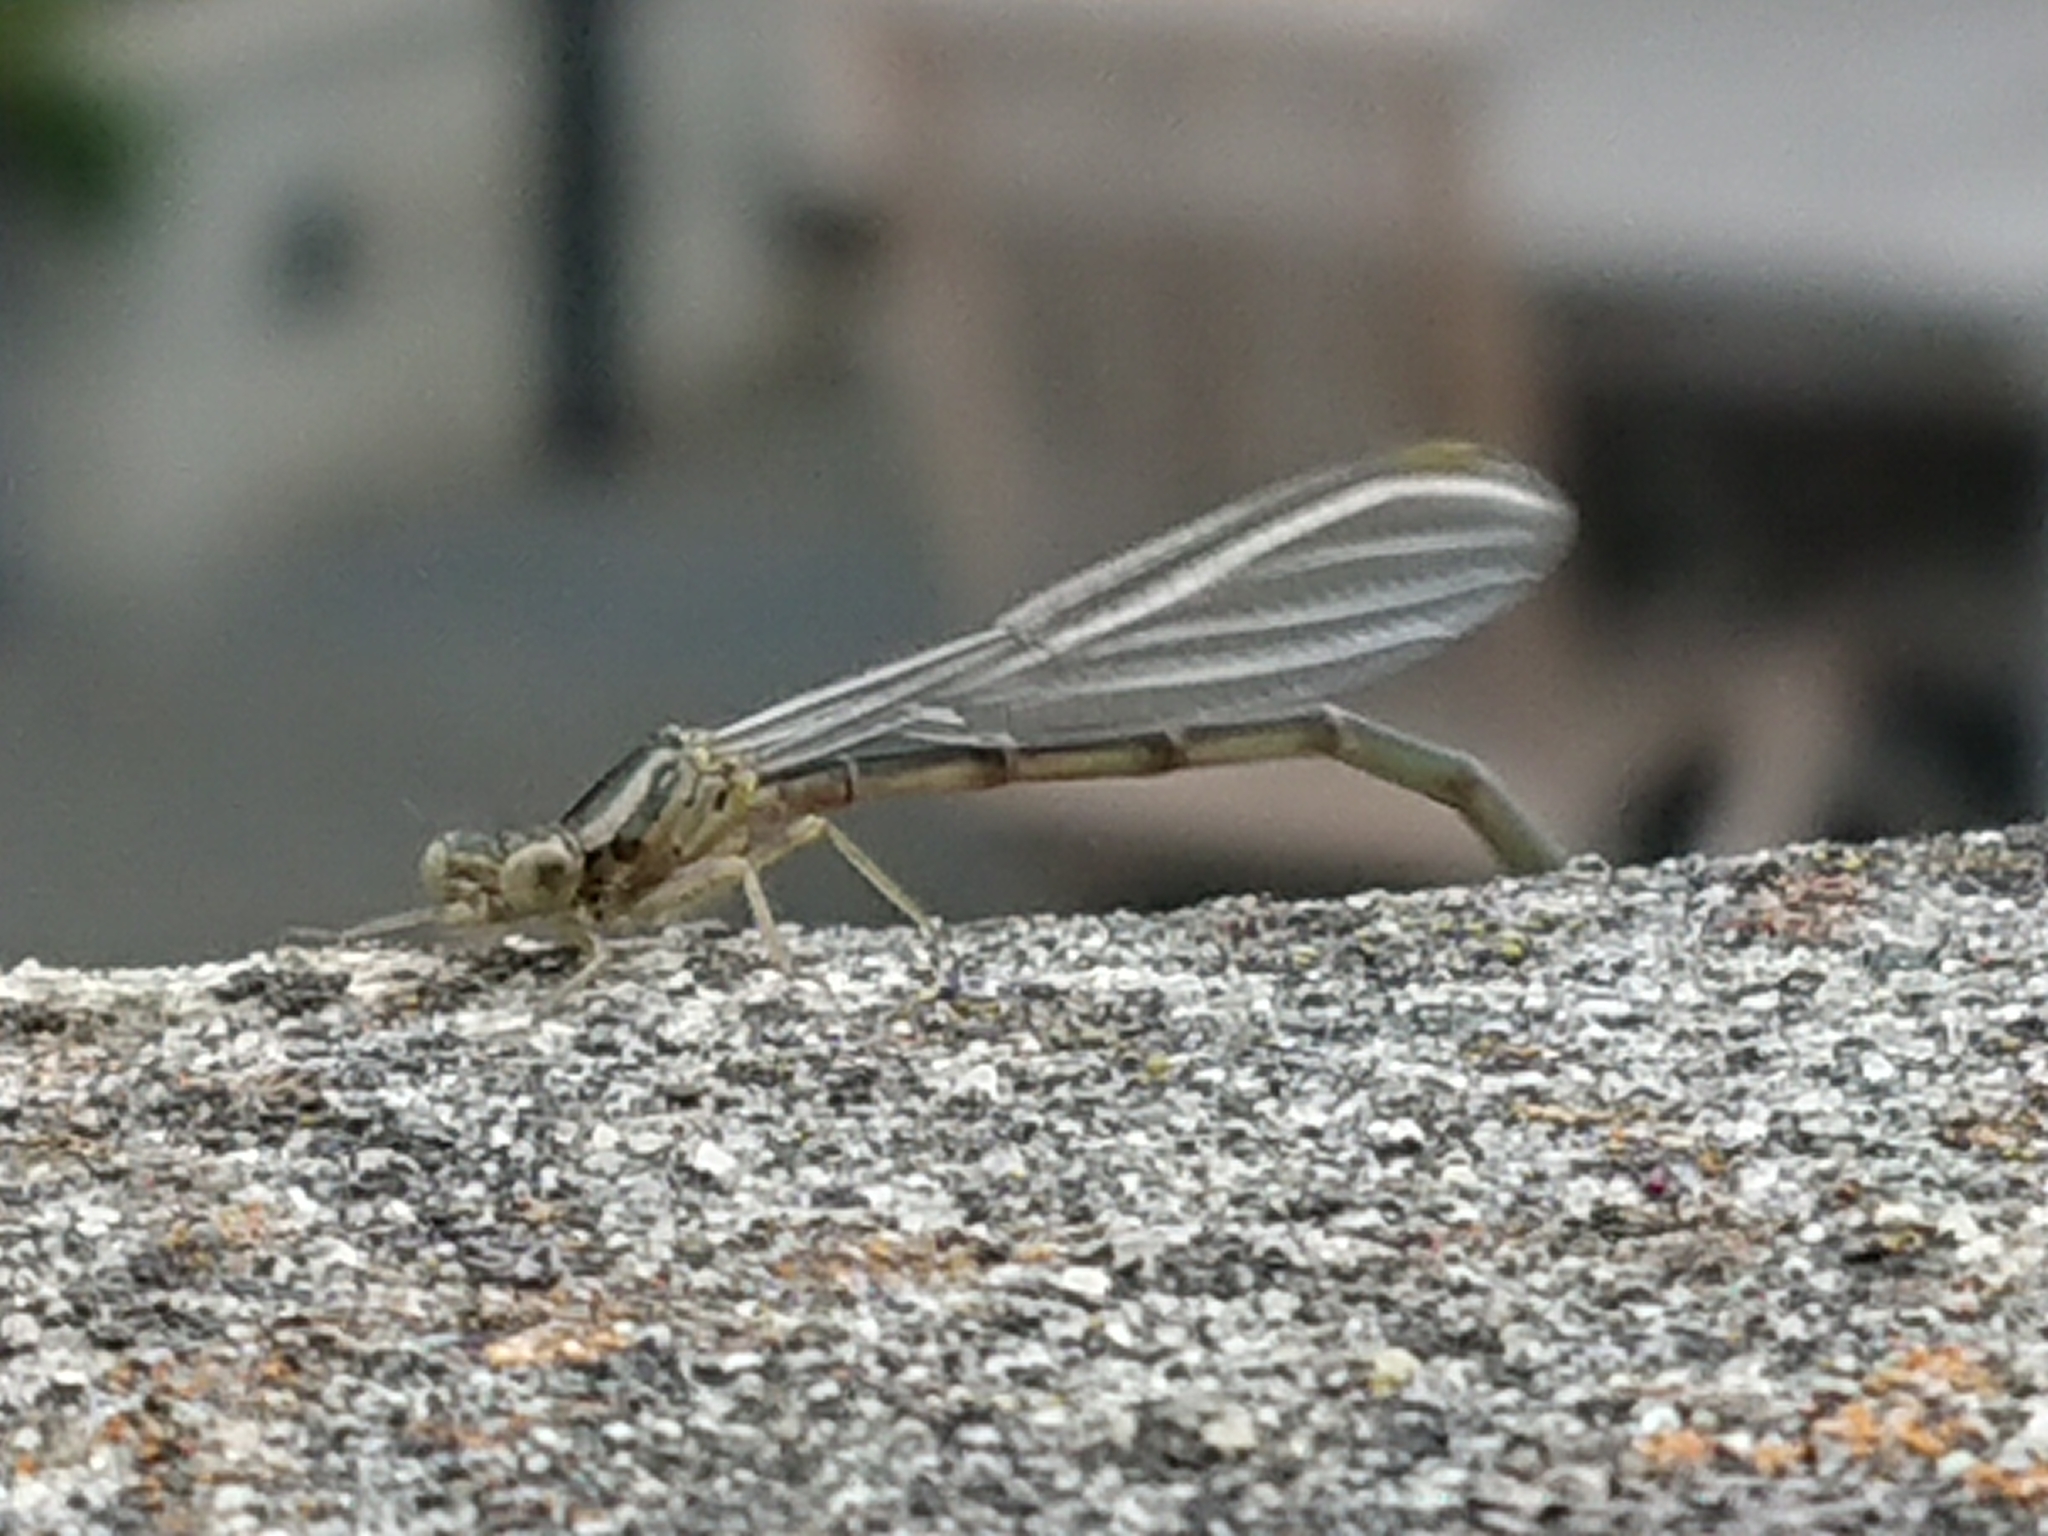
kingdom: Animalia
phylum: Arthropoda
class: Insecta
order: Odonata
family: Coenagrionidae
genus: Xanthocnemis
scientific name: Xanthocnemis zealandica
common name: Common redcoat damselfly
